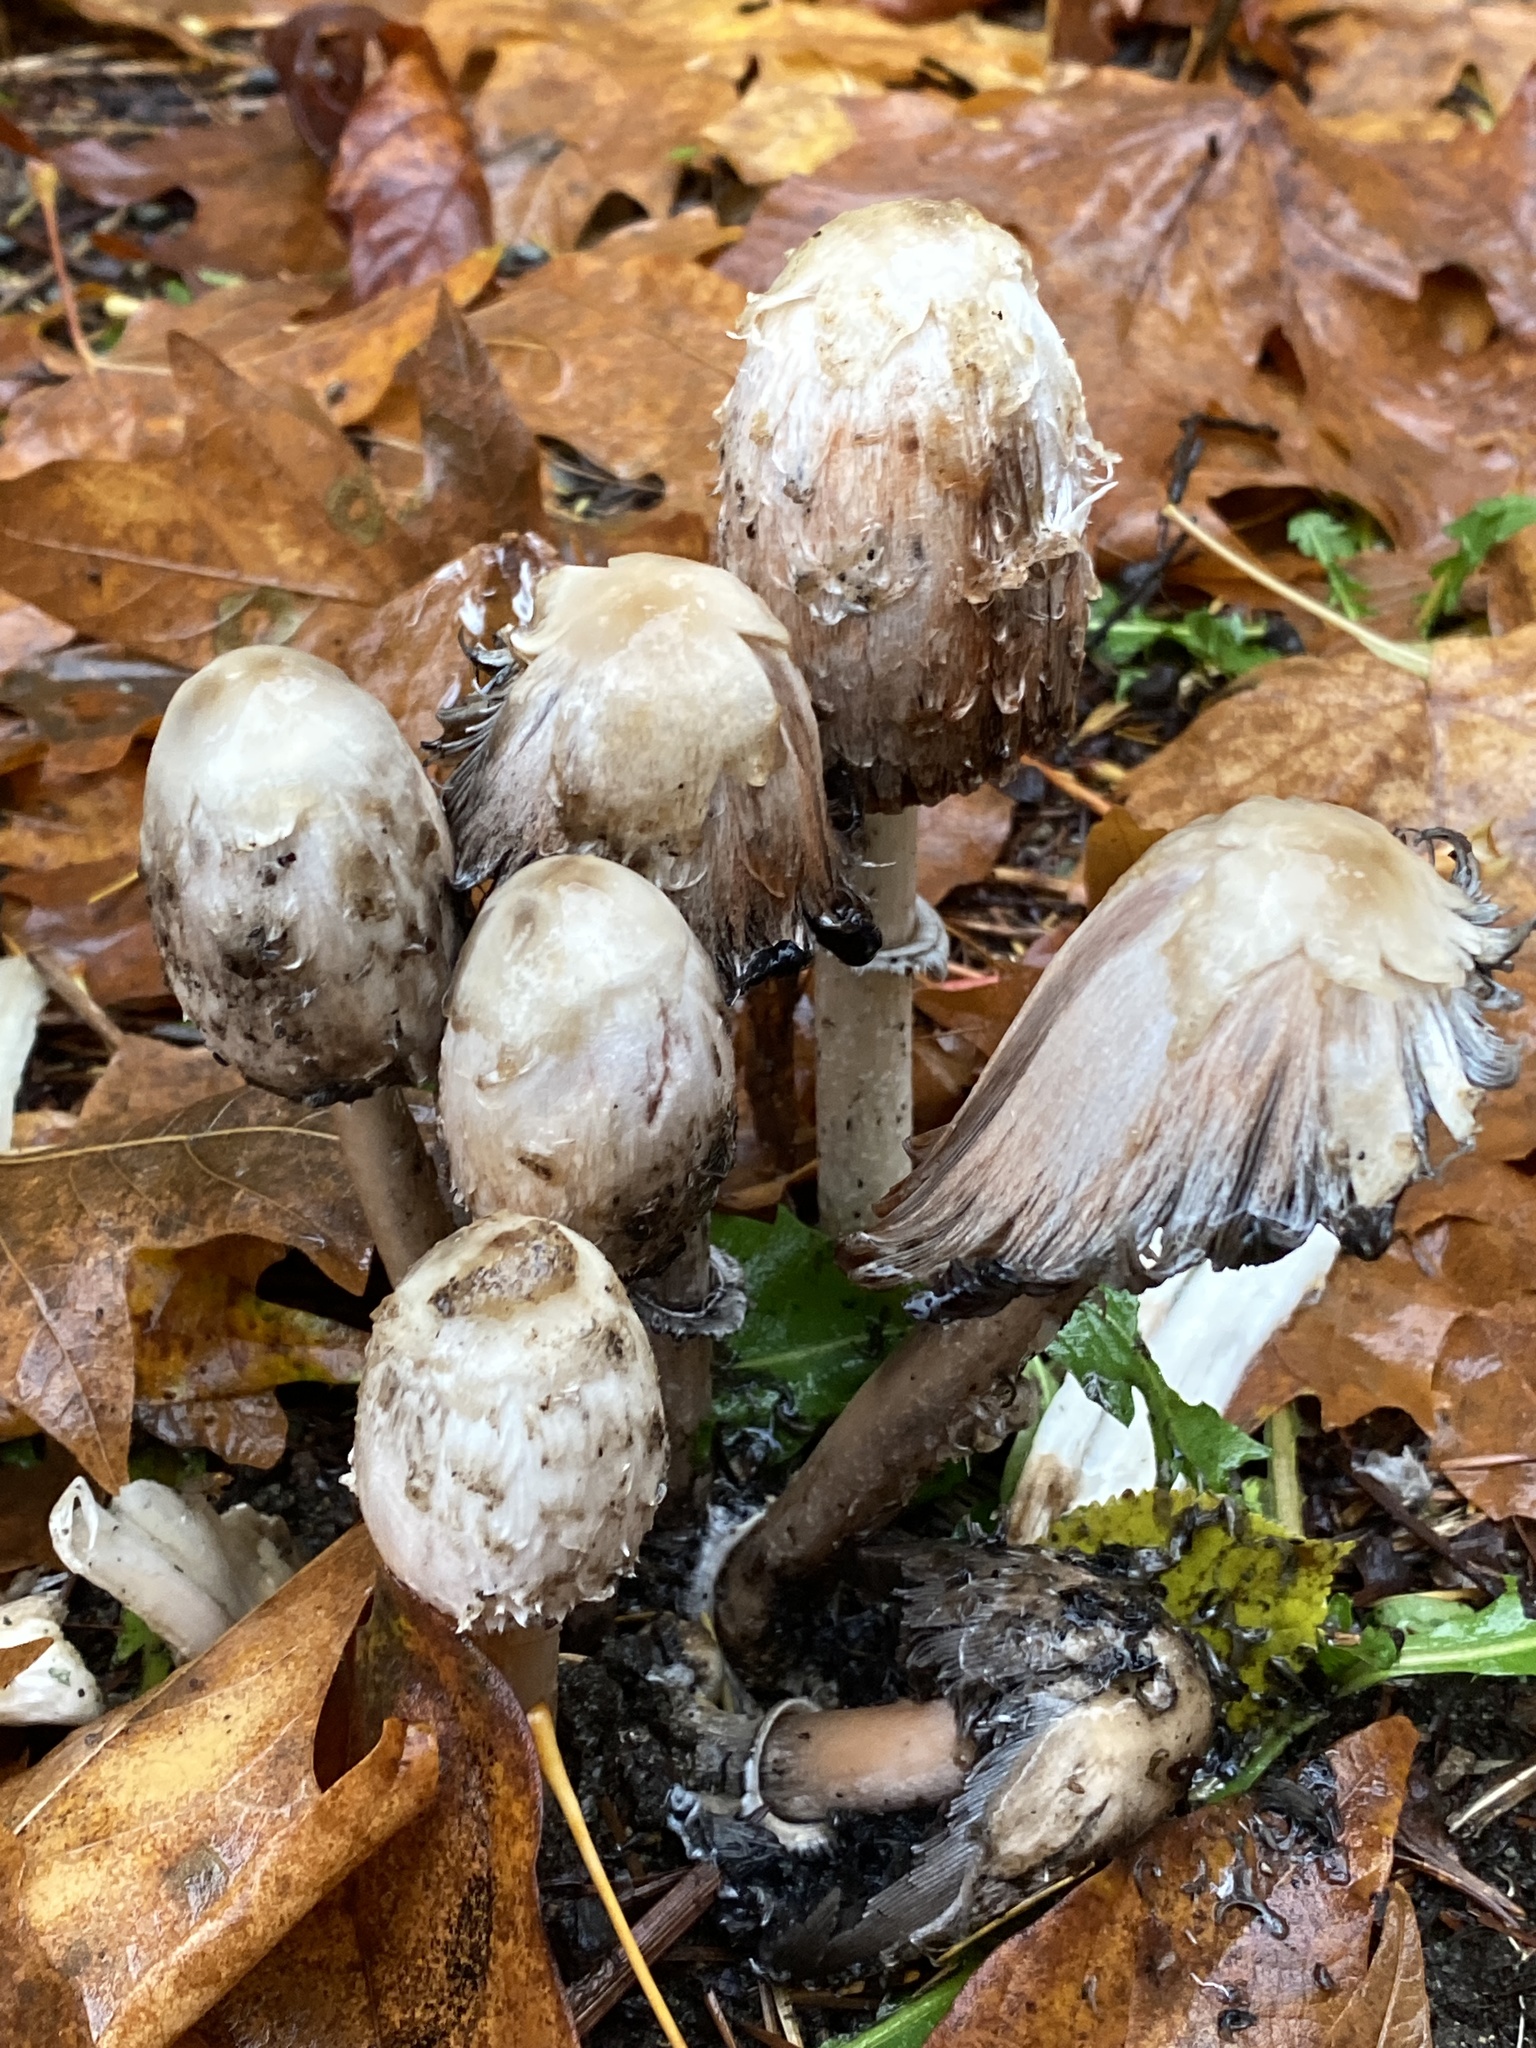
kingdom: Fungi
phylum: Basidiomycota
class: Agaricomycetes
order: Agaricales
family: Agaricaceae
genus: Coprinus
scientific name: Coprinus comatus
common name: Lawyer's wig
